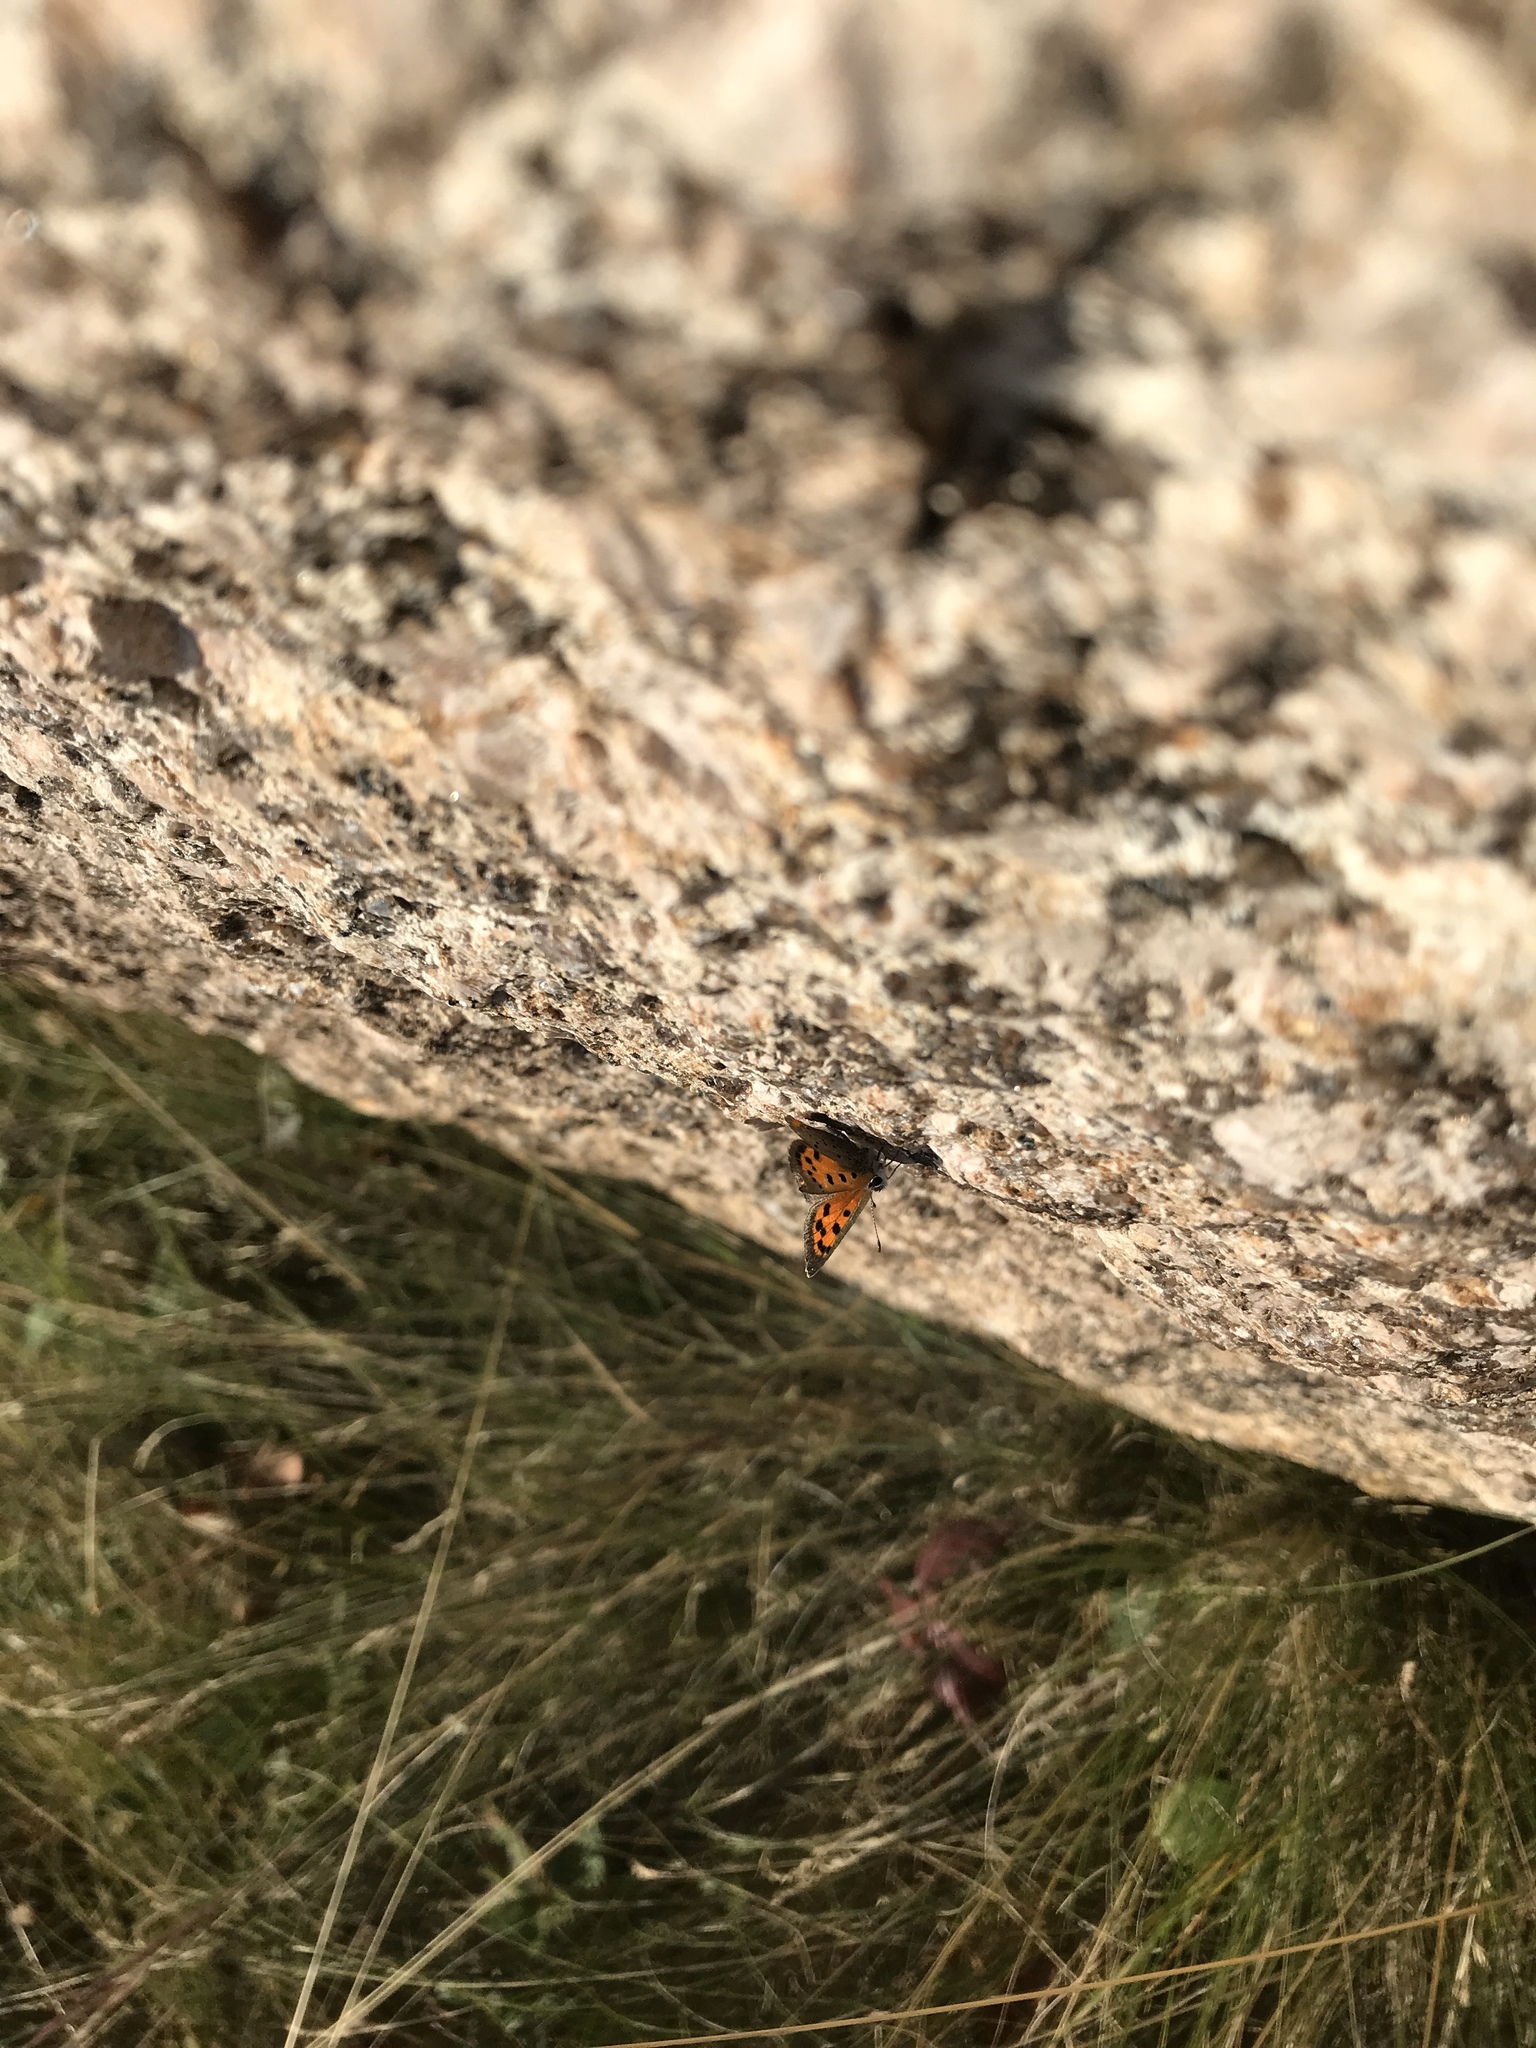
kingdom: Animalia
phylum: Arthropoda
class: Insecta
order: Lepidoptera
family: Lycaenidae
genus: Lycaena
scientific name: Lycaena hypophlaeas
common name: American copper
